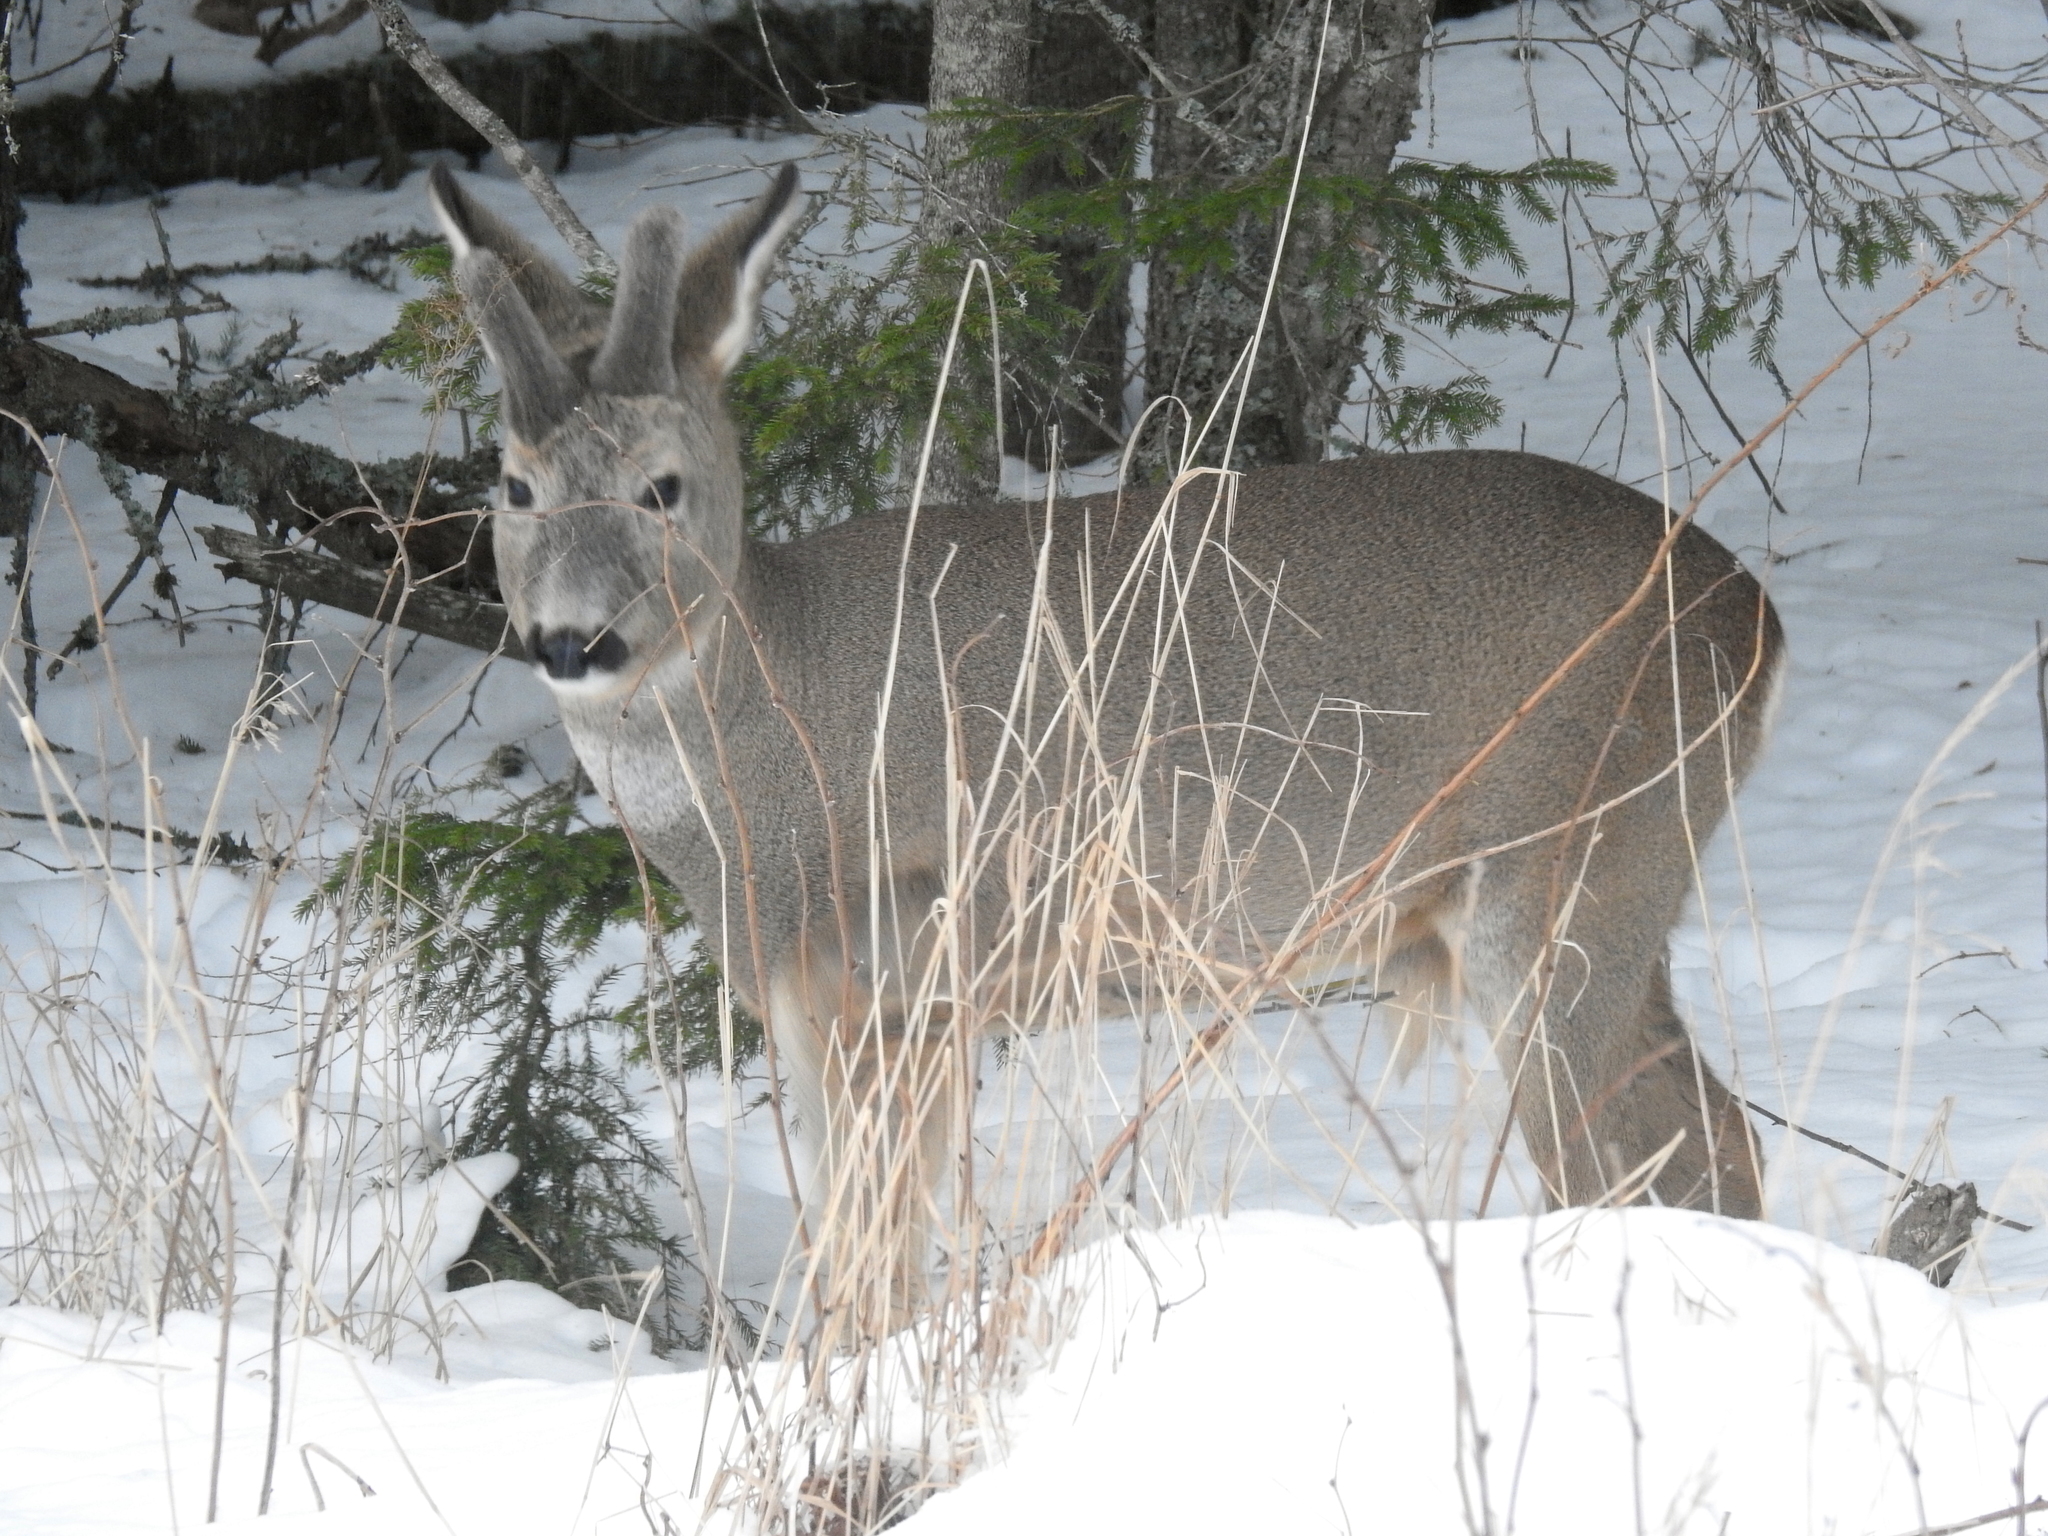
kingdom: Animalia
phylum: Chordata
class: Mammalia
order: Artiodactyla
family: Cervidae
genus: Capreolus
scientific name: Capreolus capreolus
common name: Western roe deer
